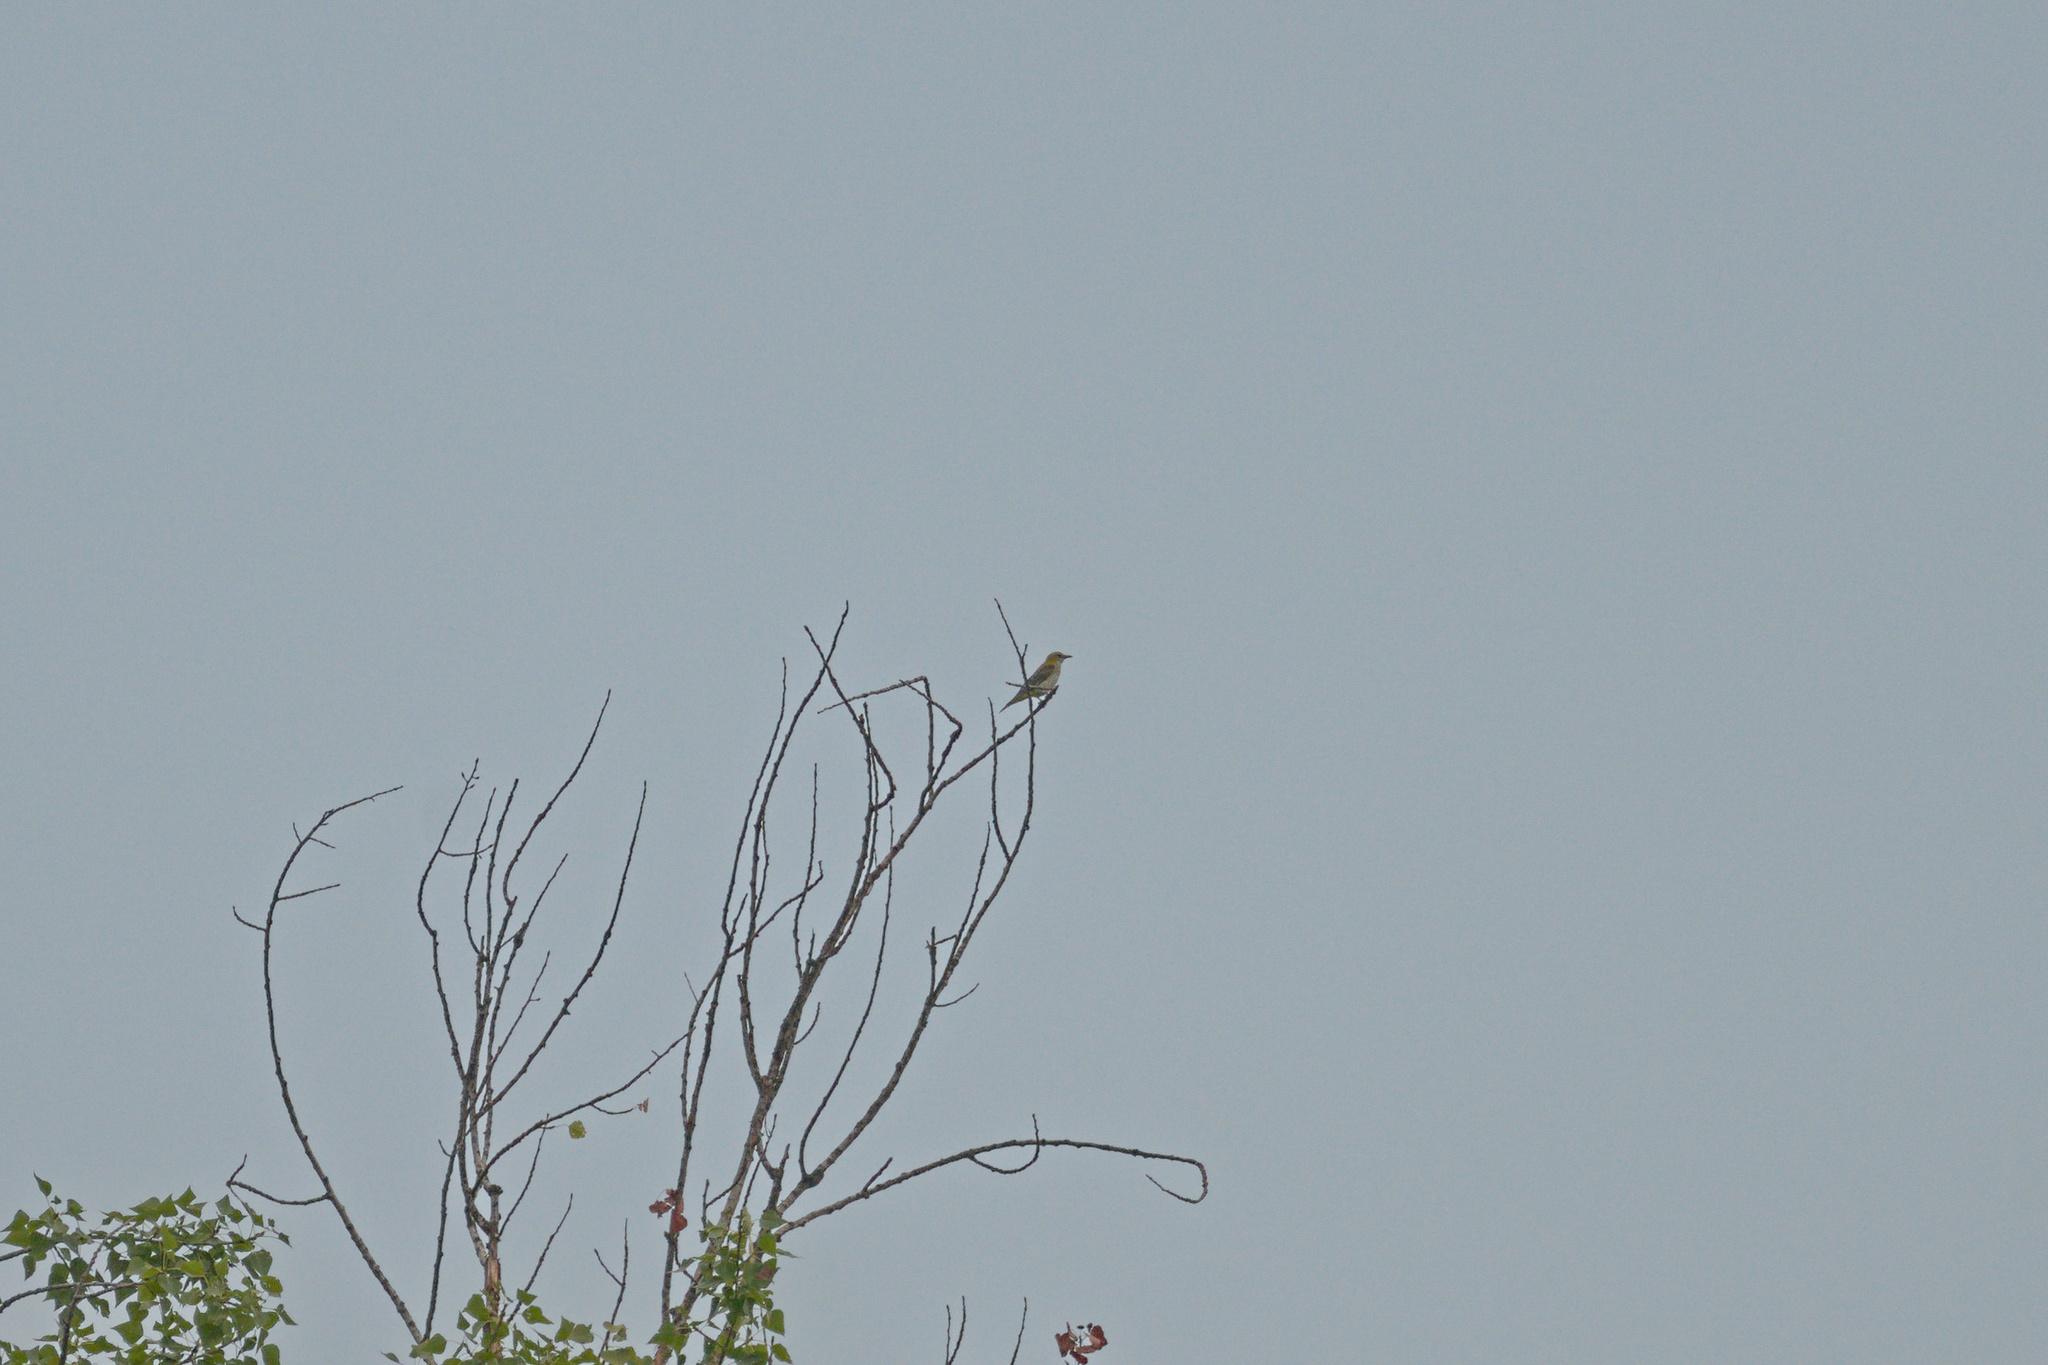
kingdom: Animalia
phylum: Chordata
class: Aves
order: Passeriformes
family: Oriolidae
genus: Oriolus
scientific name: Oriolus oriolus
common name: Eurasian golden oriole
